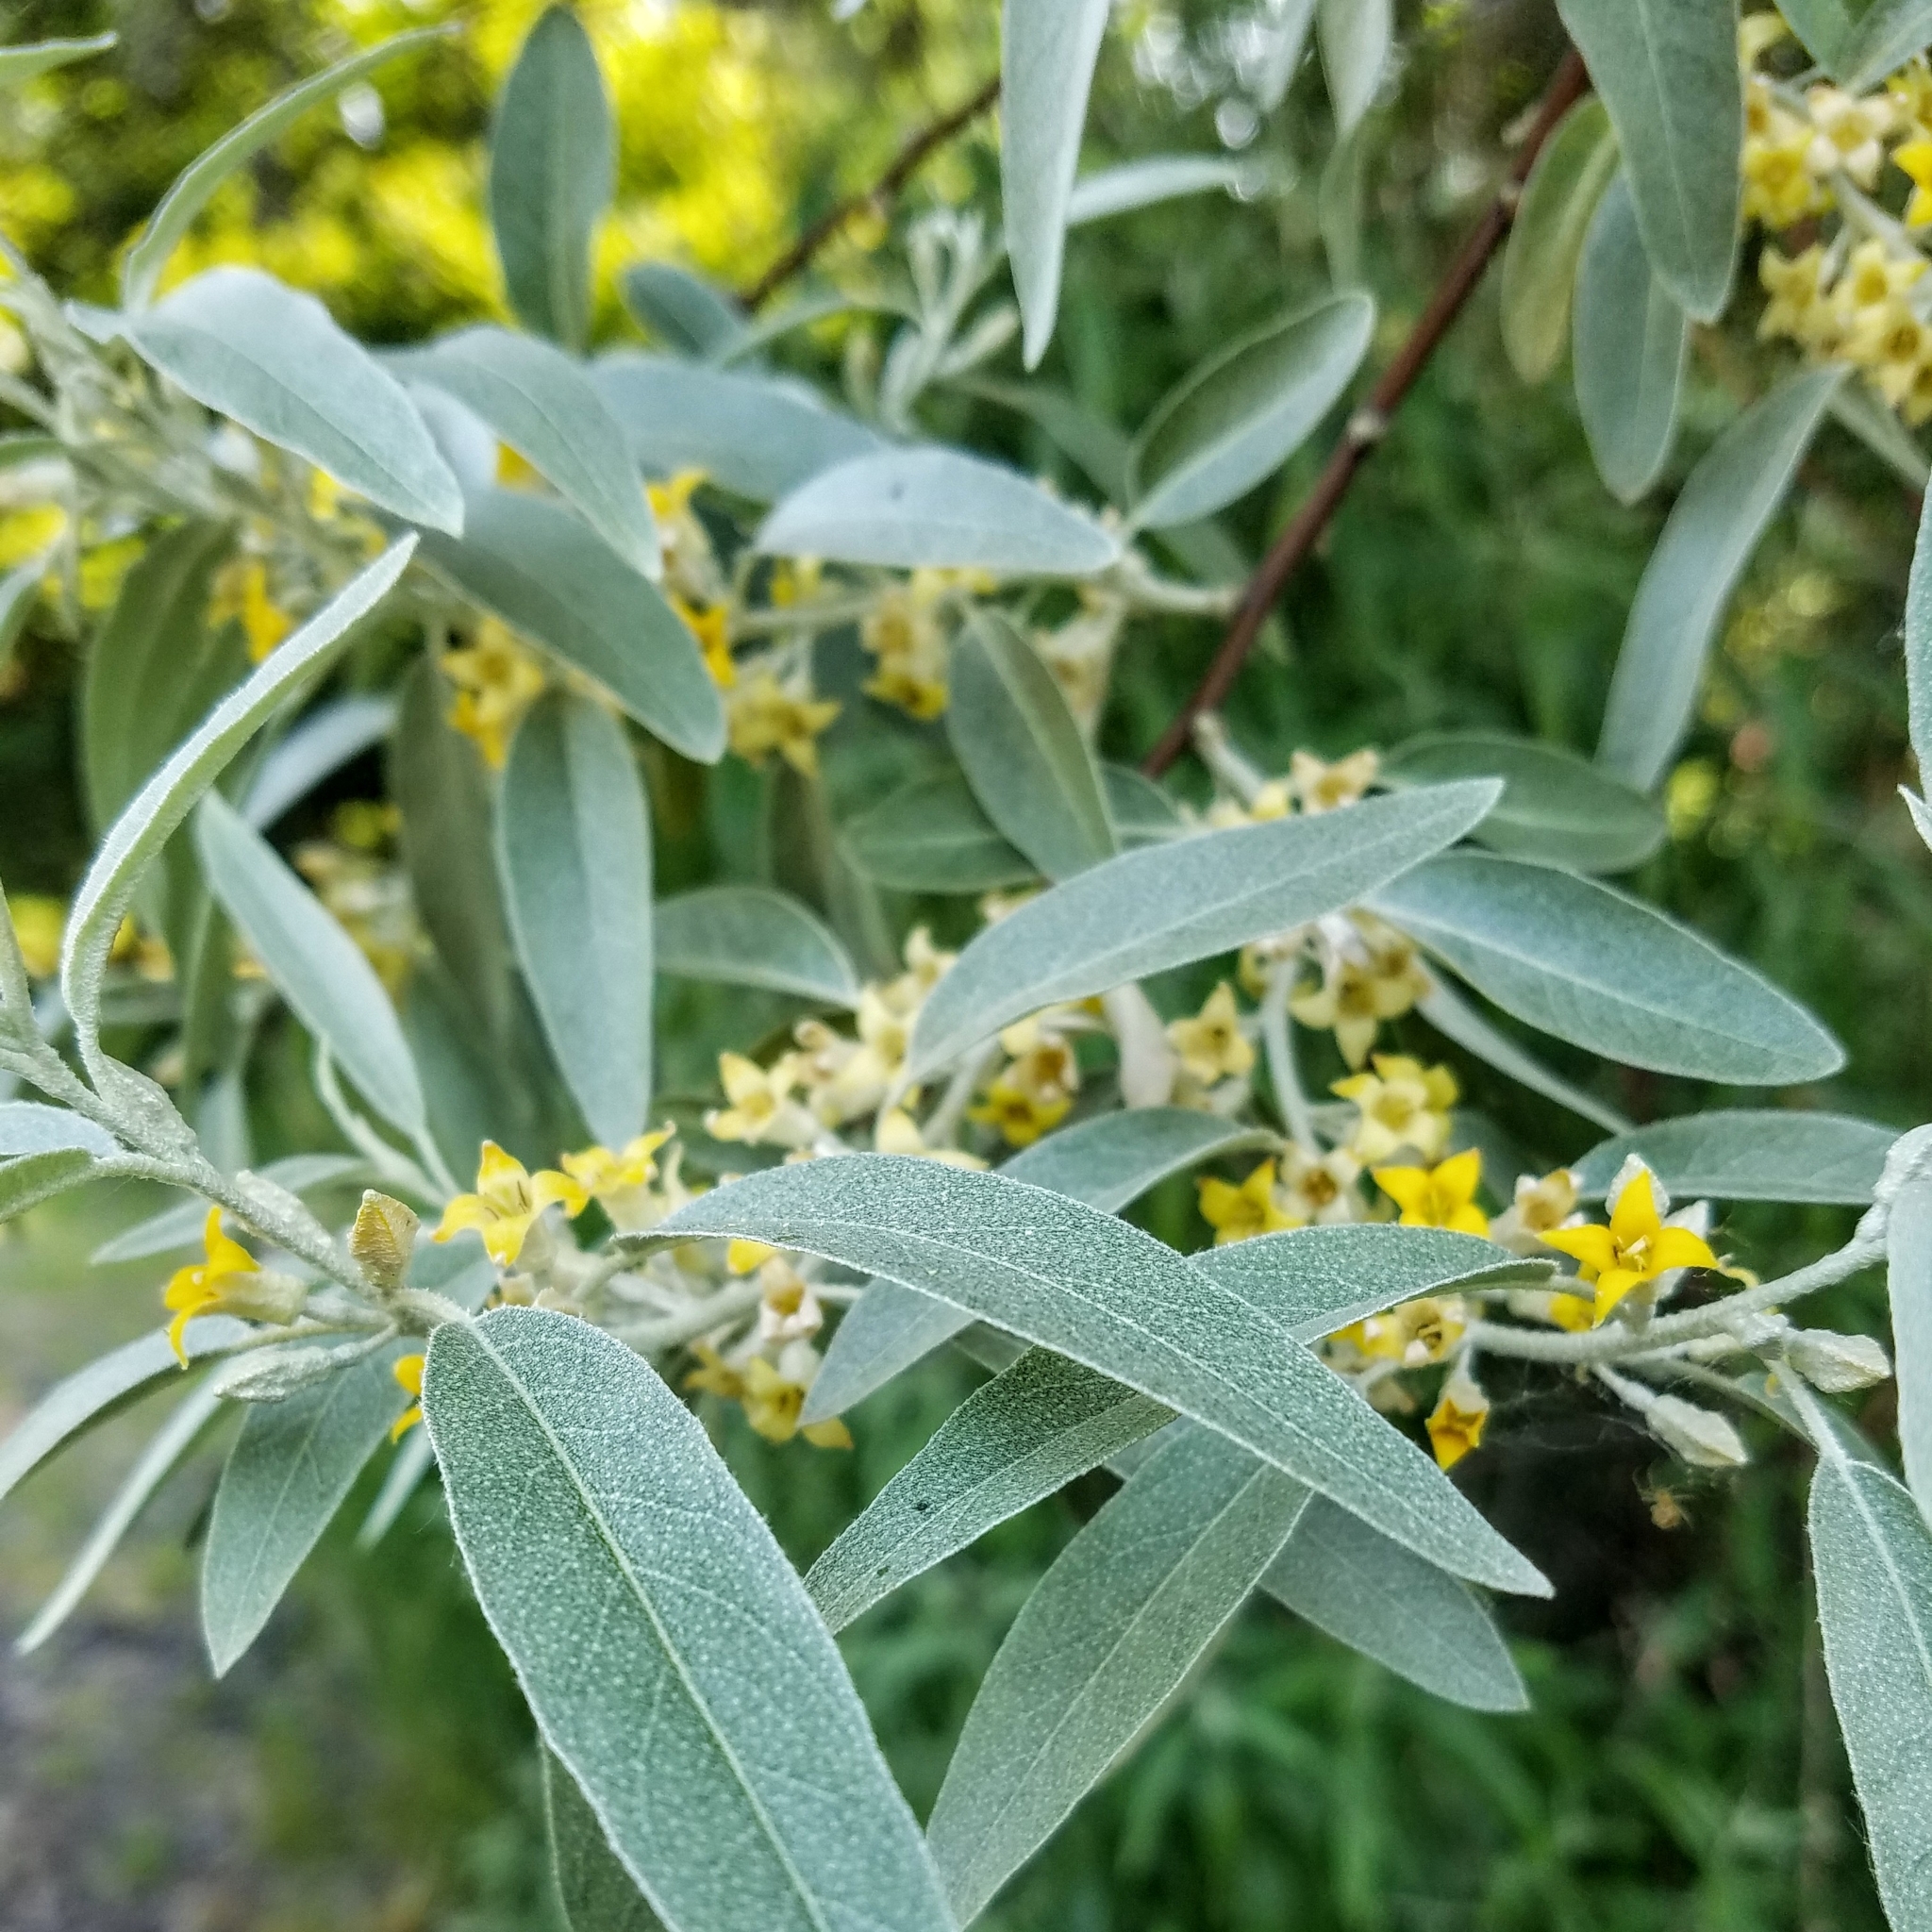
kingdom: Plantae
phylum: Tracheophyta
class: Magnoliopsida
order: Rosales
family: Elaeagnaceae
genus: Elaeagnus
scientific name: Elaeagnus angustifolia
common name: Russian olive
